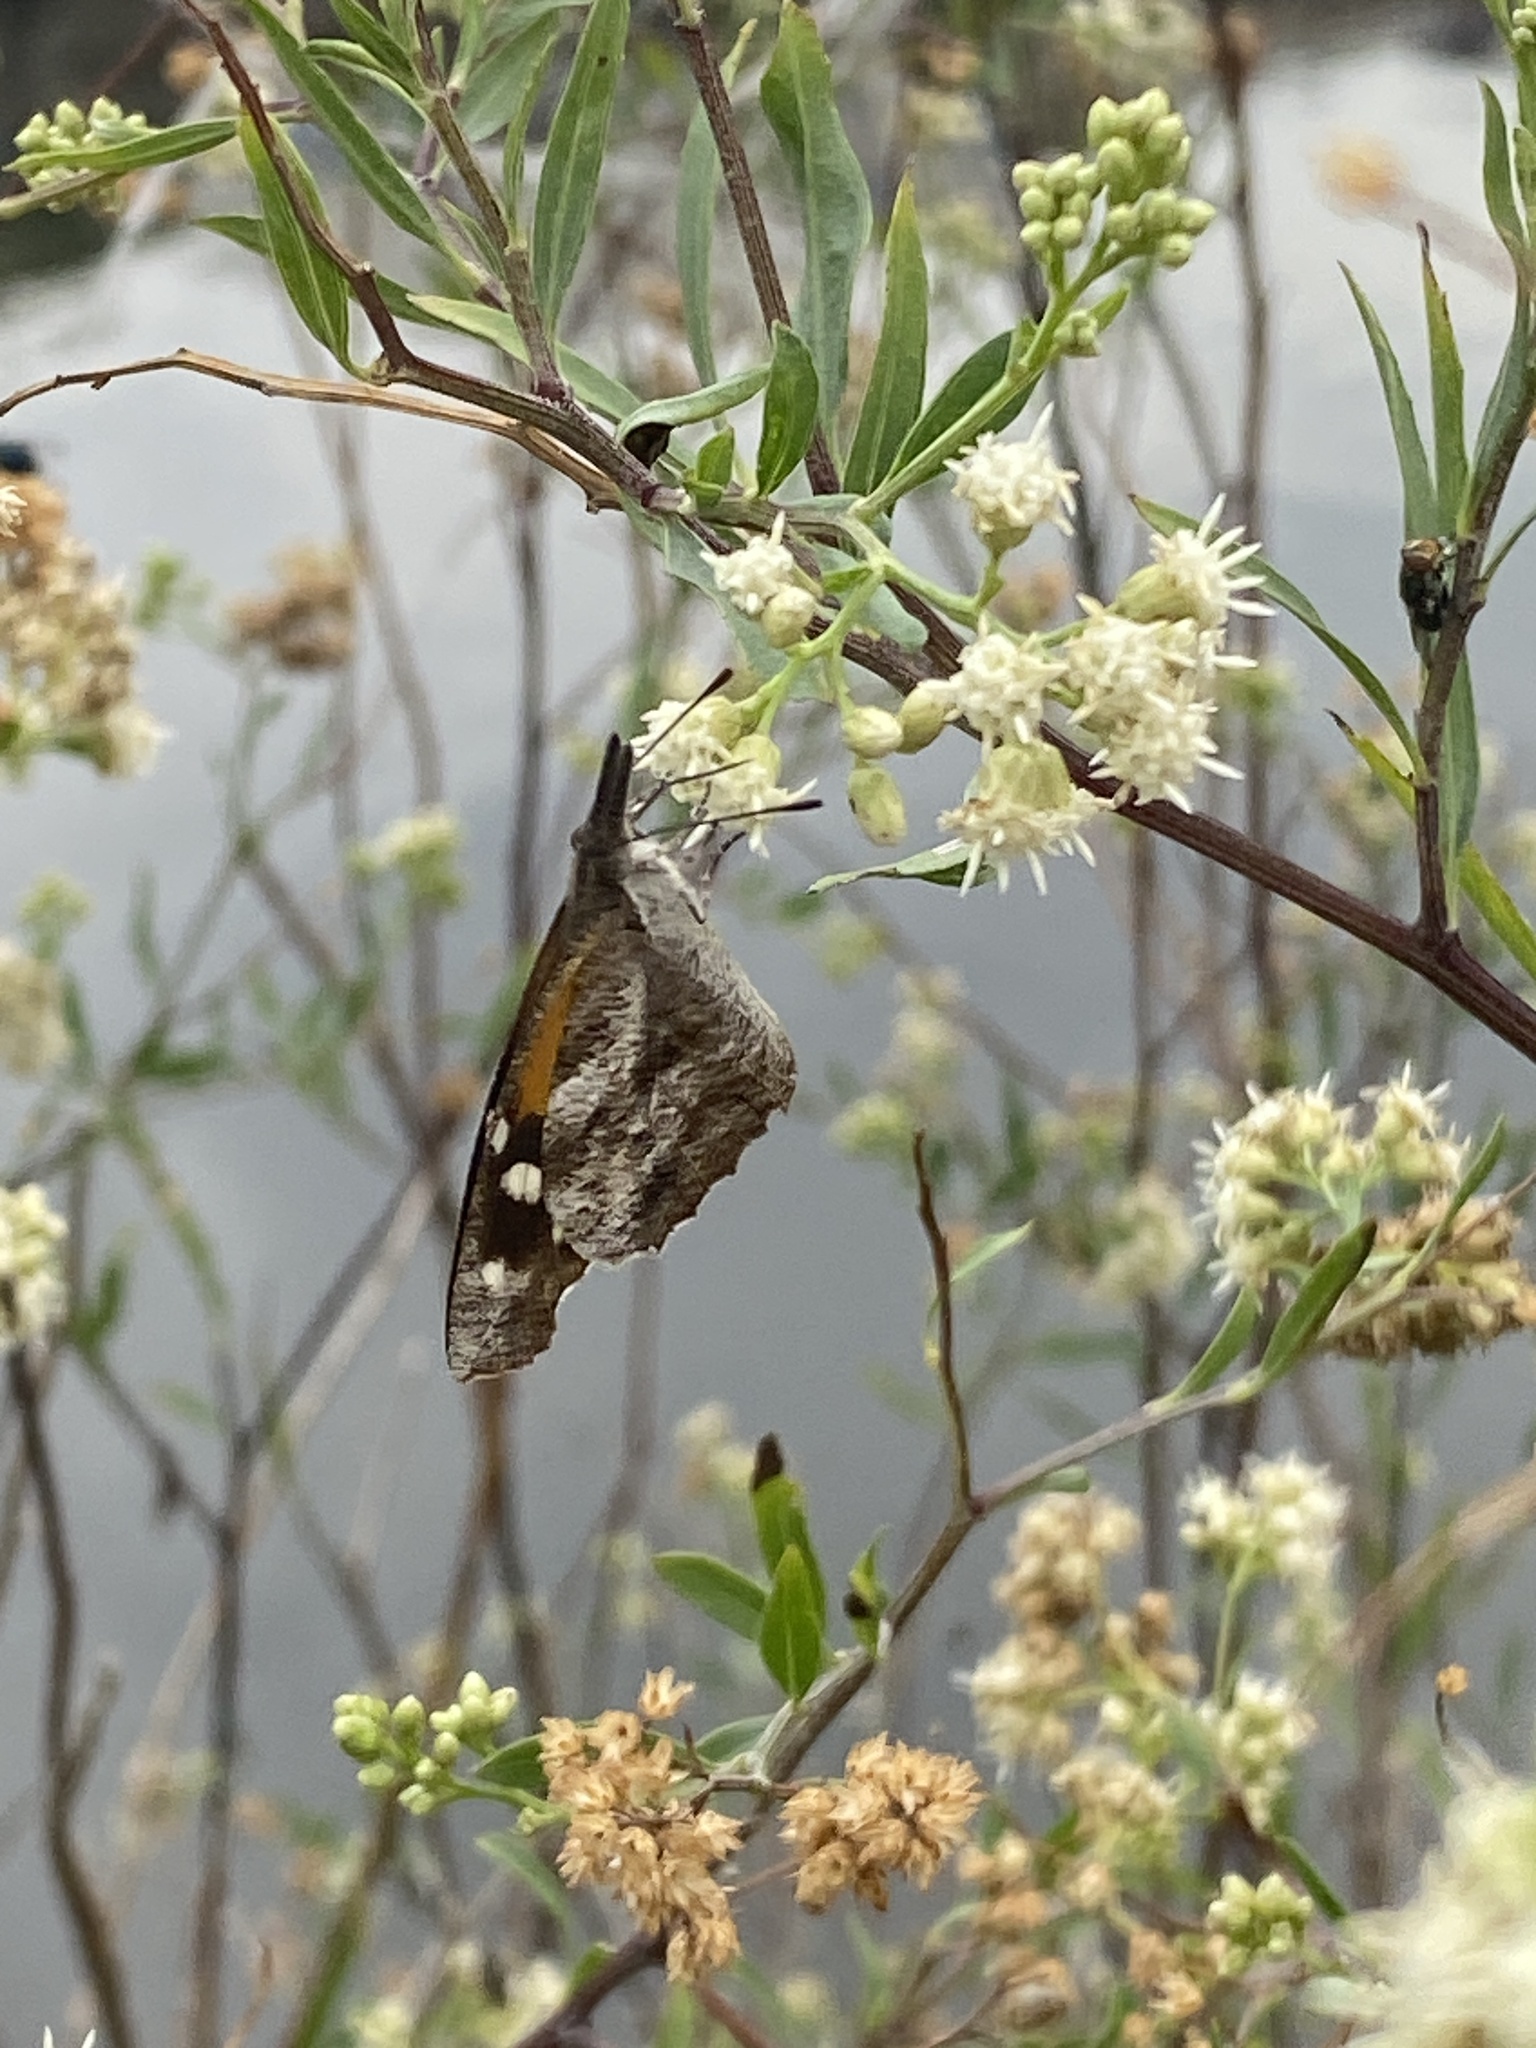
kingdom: Animalia
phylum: Arthropoda
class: Insecta
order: Lepidoptera
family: Nymphalidae
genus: Libytheana
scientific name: Libytheana carinenta
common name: American snout
